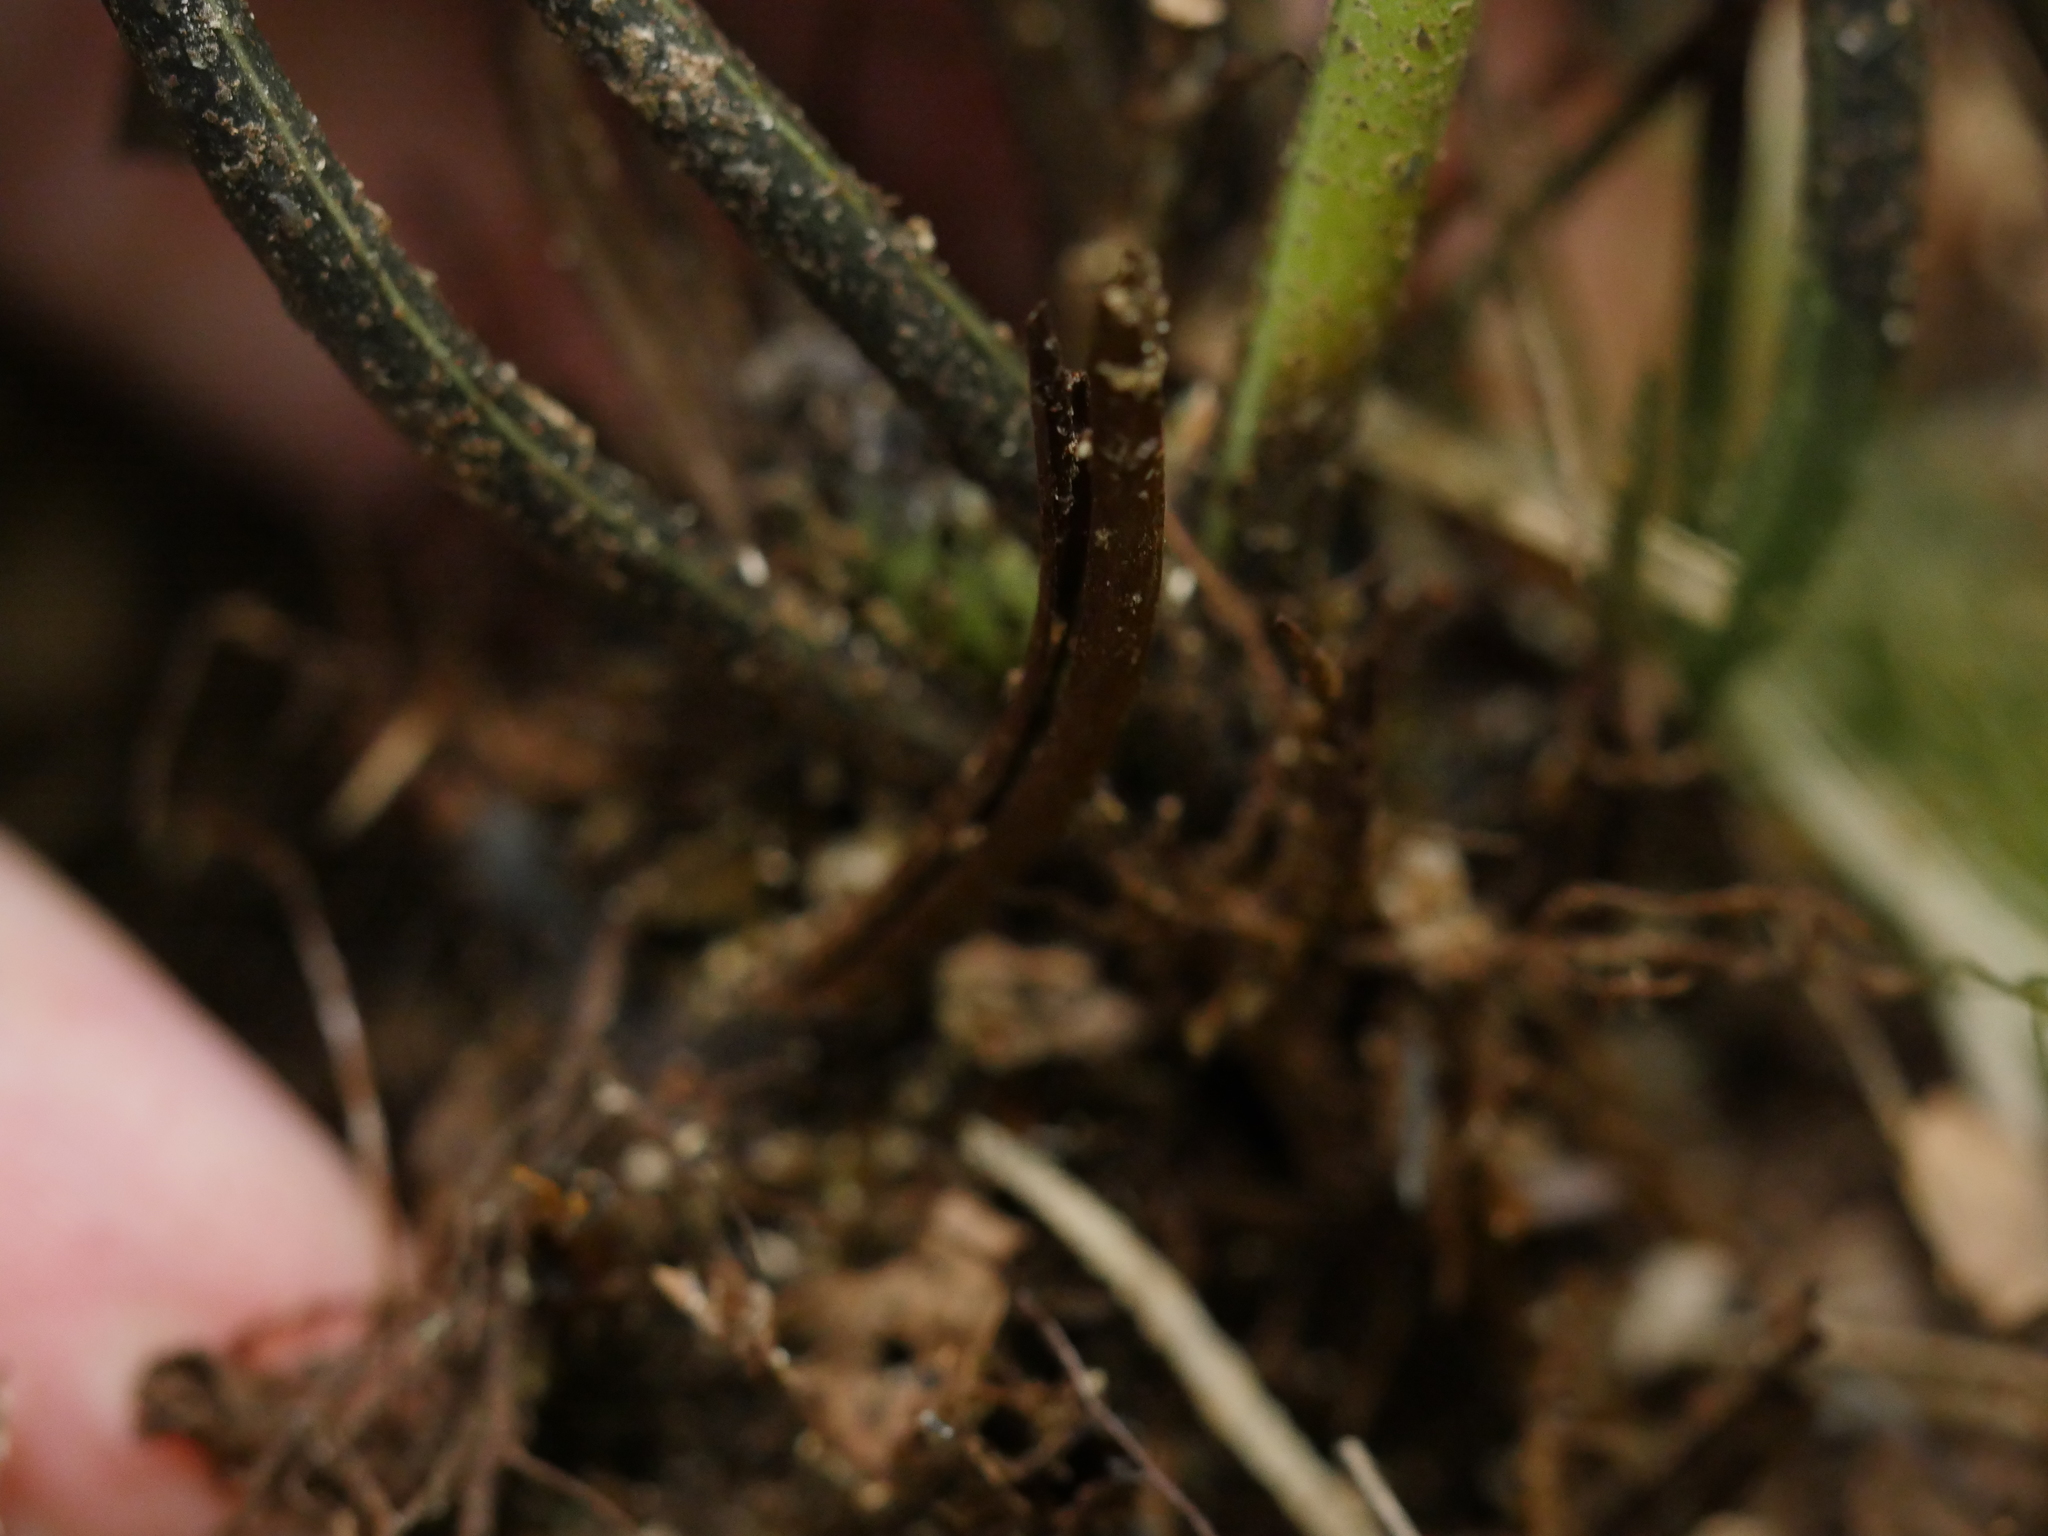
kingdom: Plantae
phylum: Tracheophyta
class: Polypodiopsida
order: Polypodiales
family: Aspleniaceae
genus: Asplenium
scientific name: Asplenium lamprophyllum
